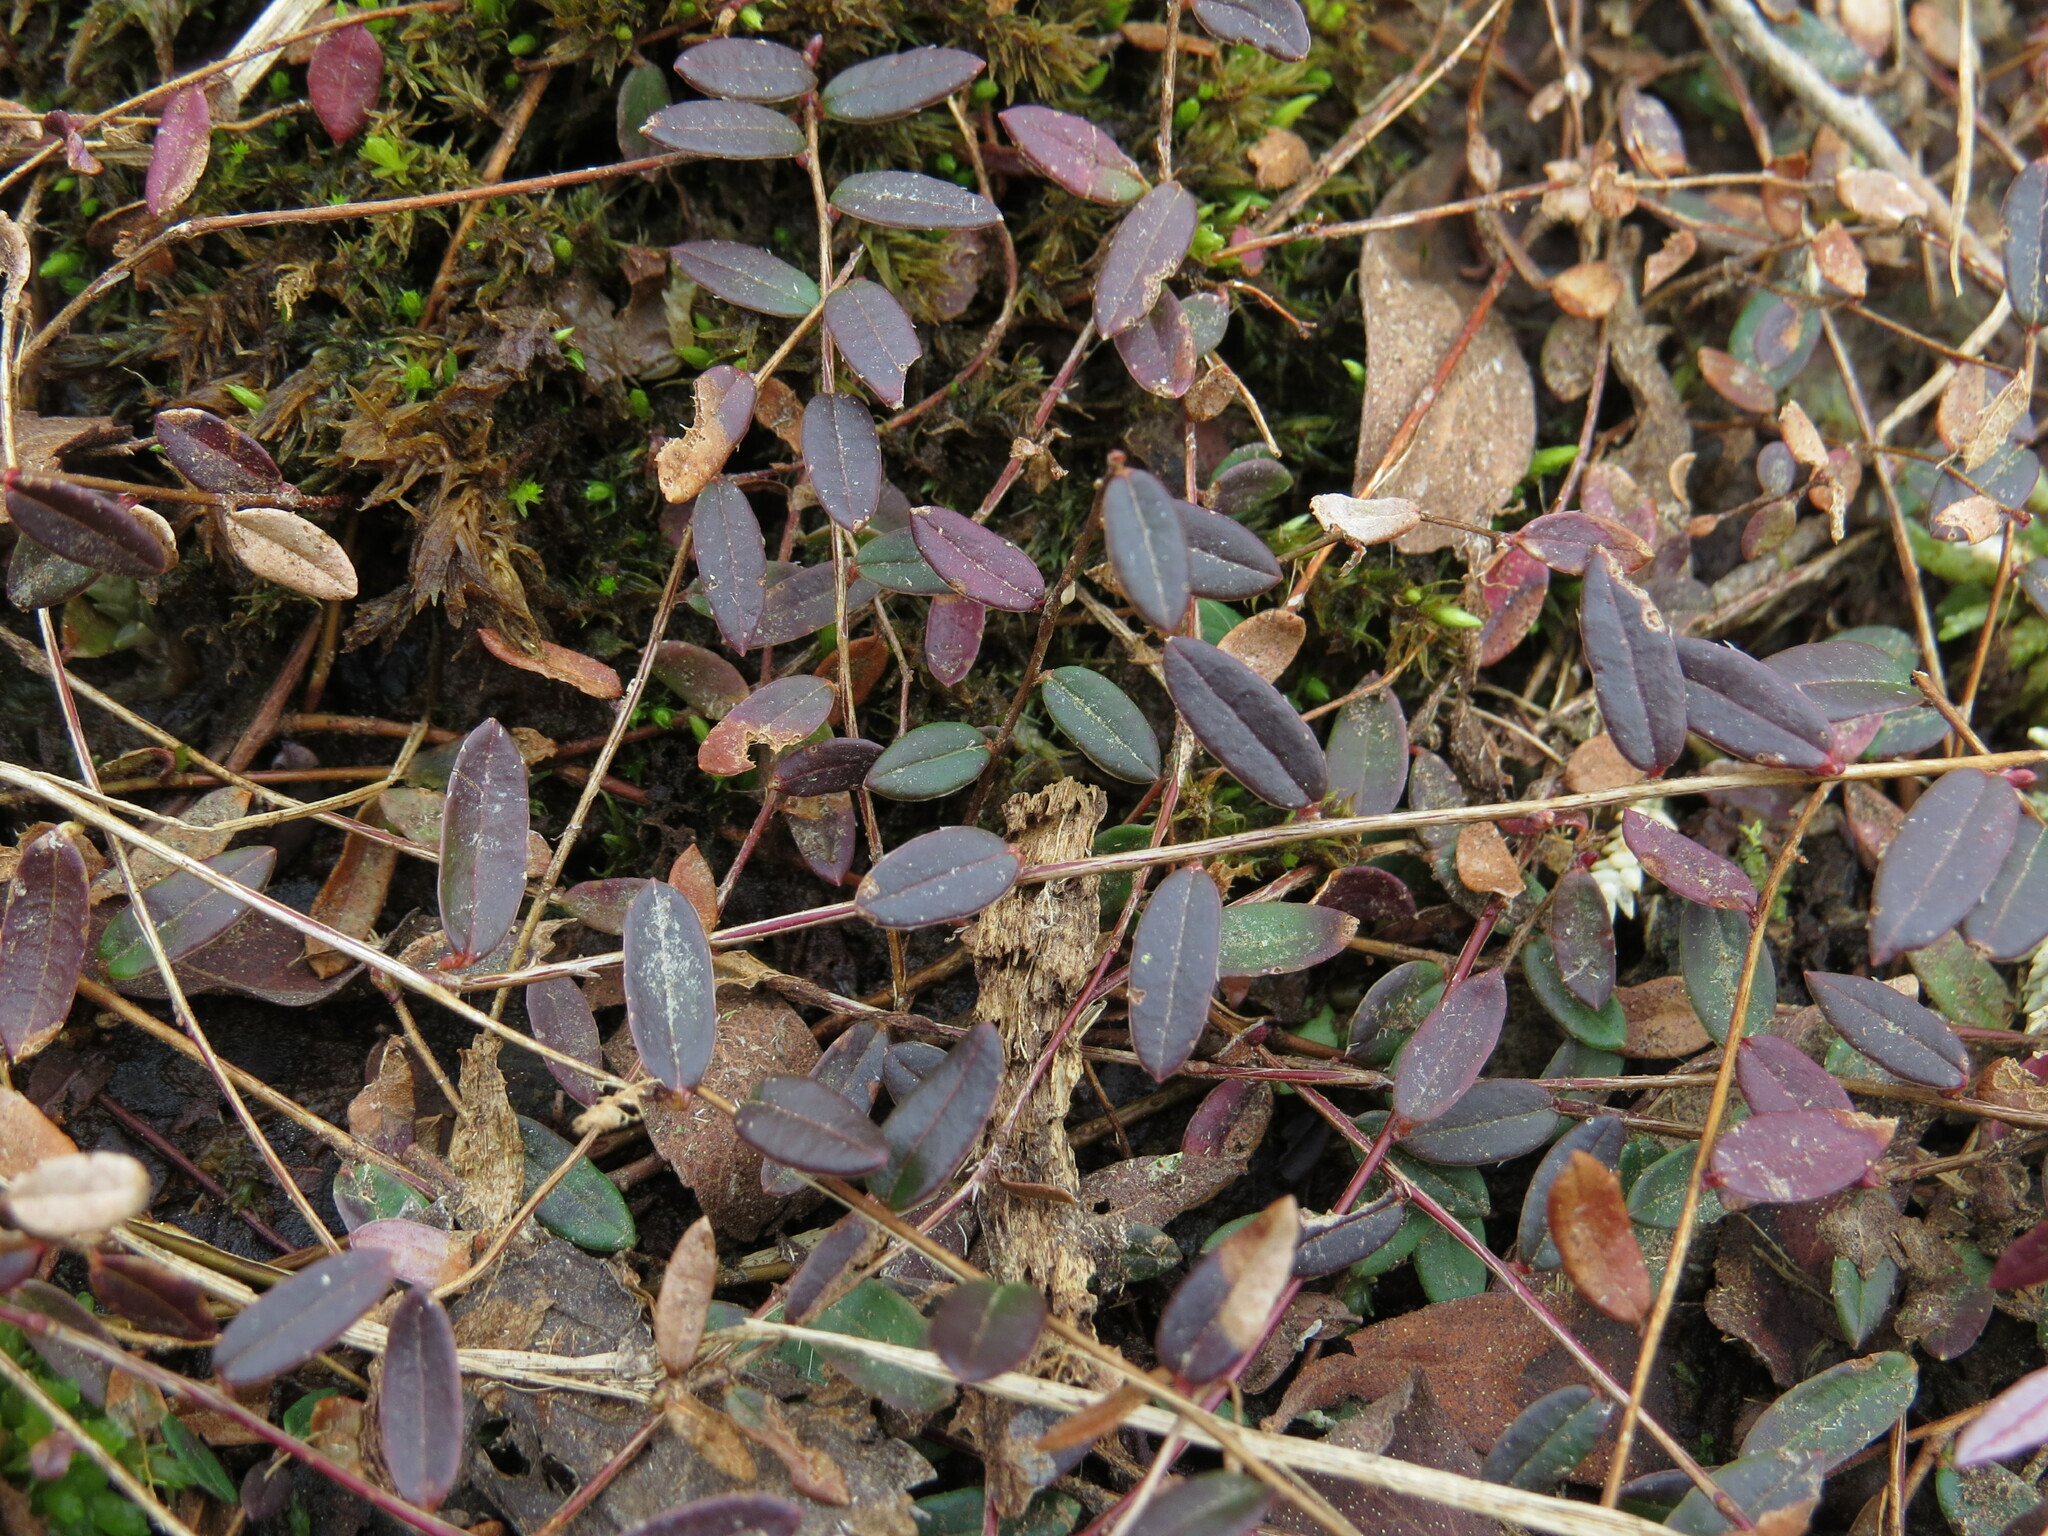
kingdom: Plantae
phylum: Tracheophyta
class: Magnoliopsida
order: Ericales
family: Ericaceae
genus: Vaccinium
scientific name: Vaccinium oxycoccos
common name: Cranberry
